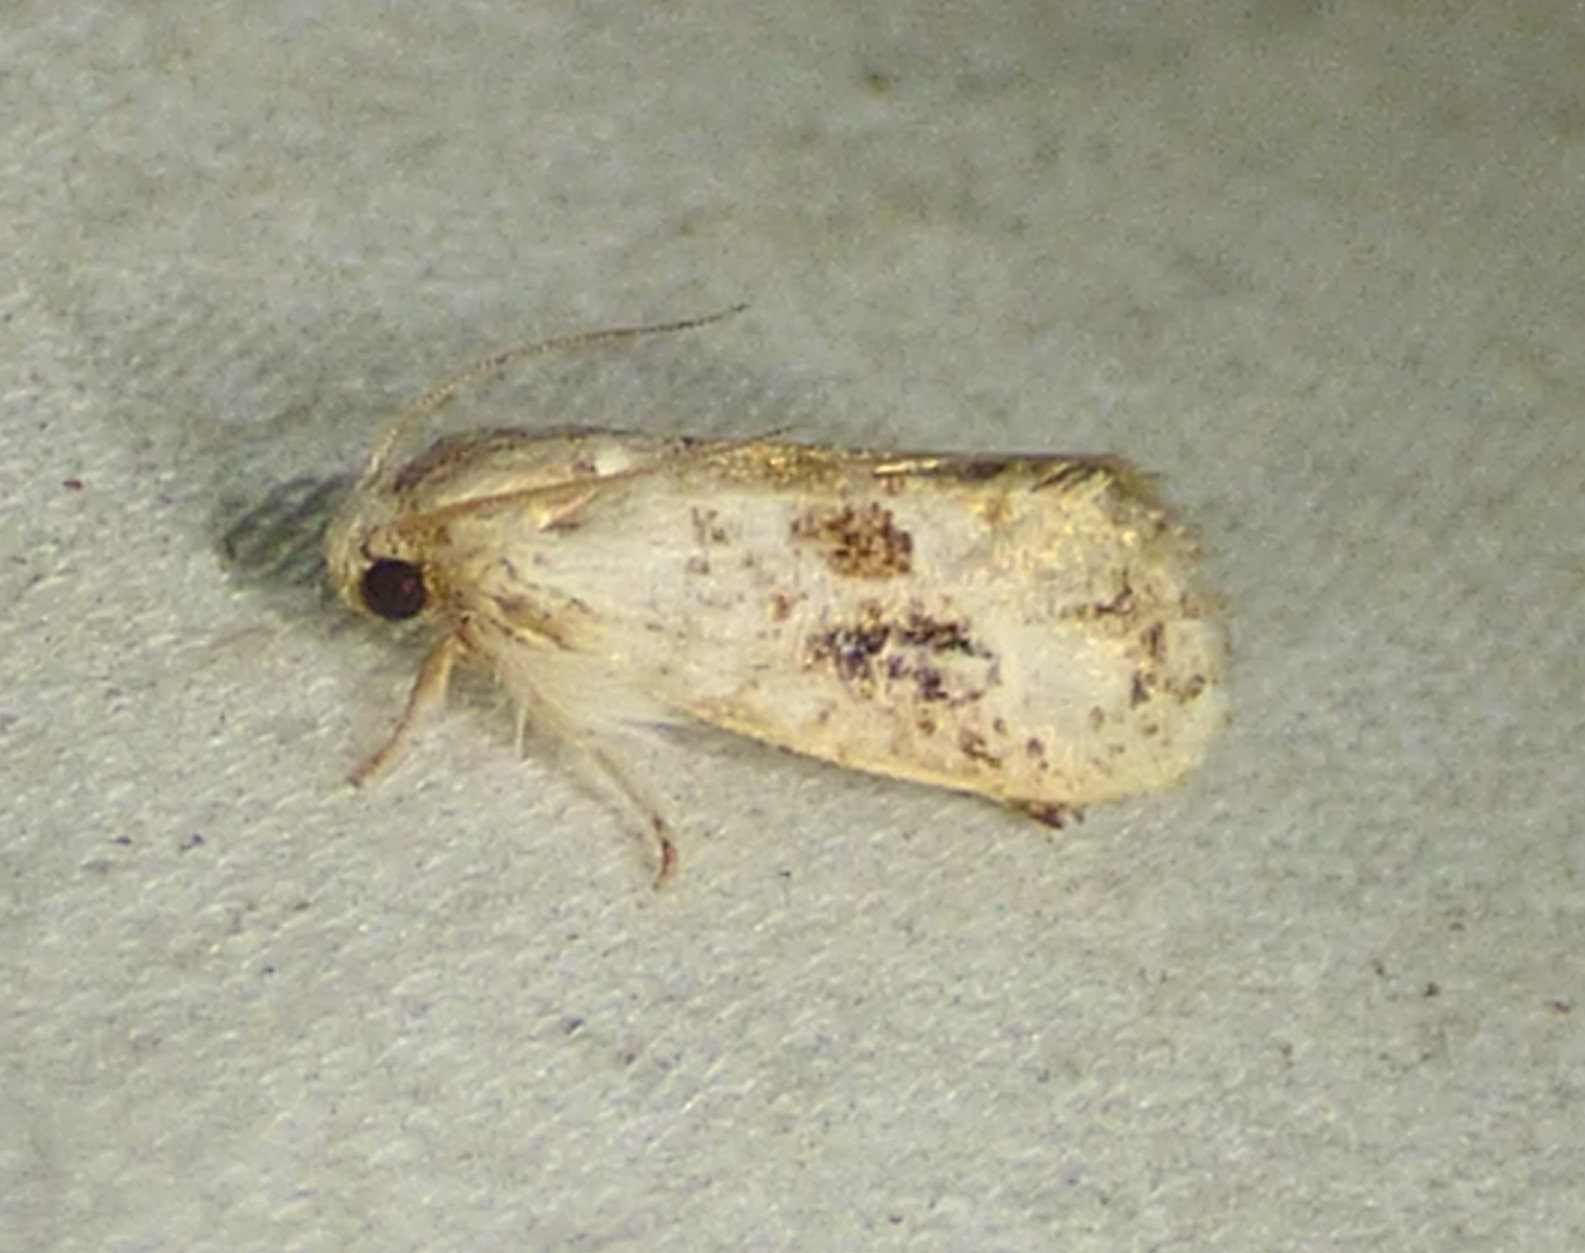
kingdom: Animalia
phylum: Arthropoda
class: Insecta
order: Lepidoptera
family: Tineidae
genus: Acrolophus
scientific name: Acrolophus mycetophagus
